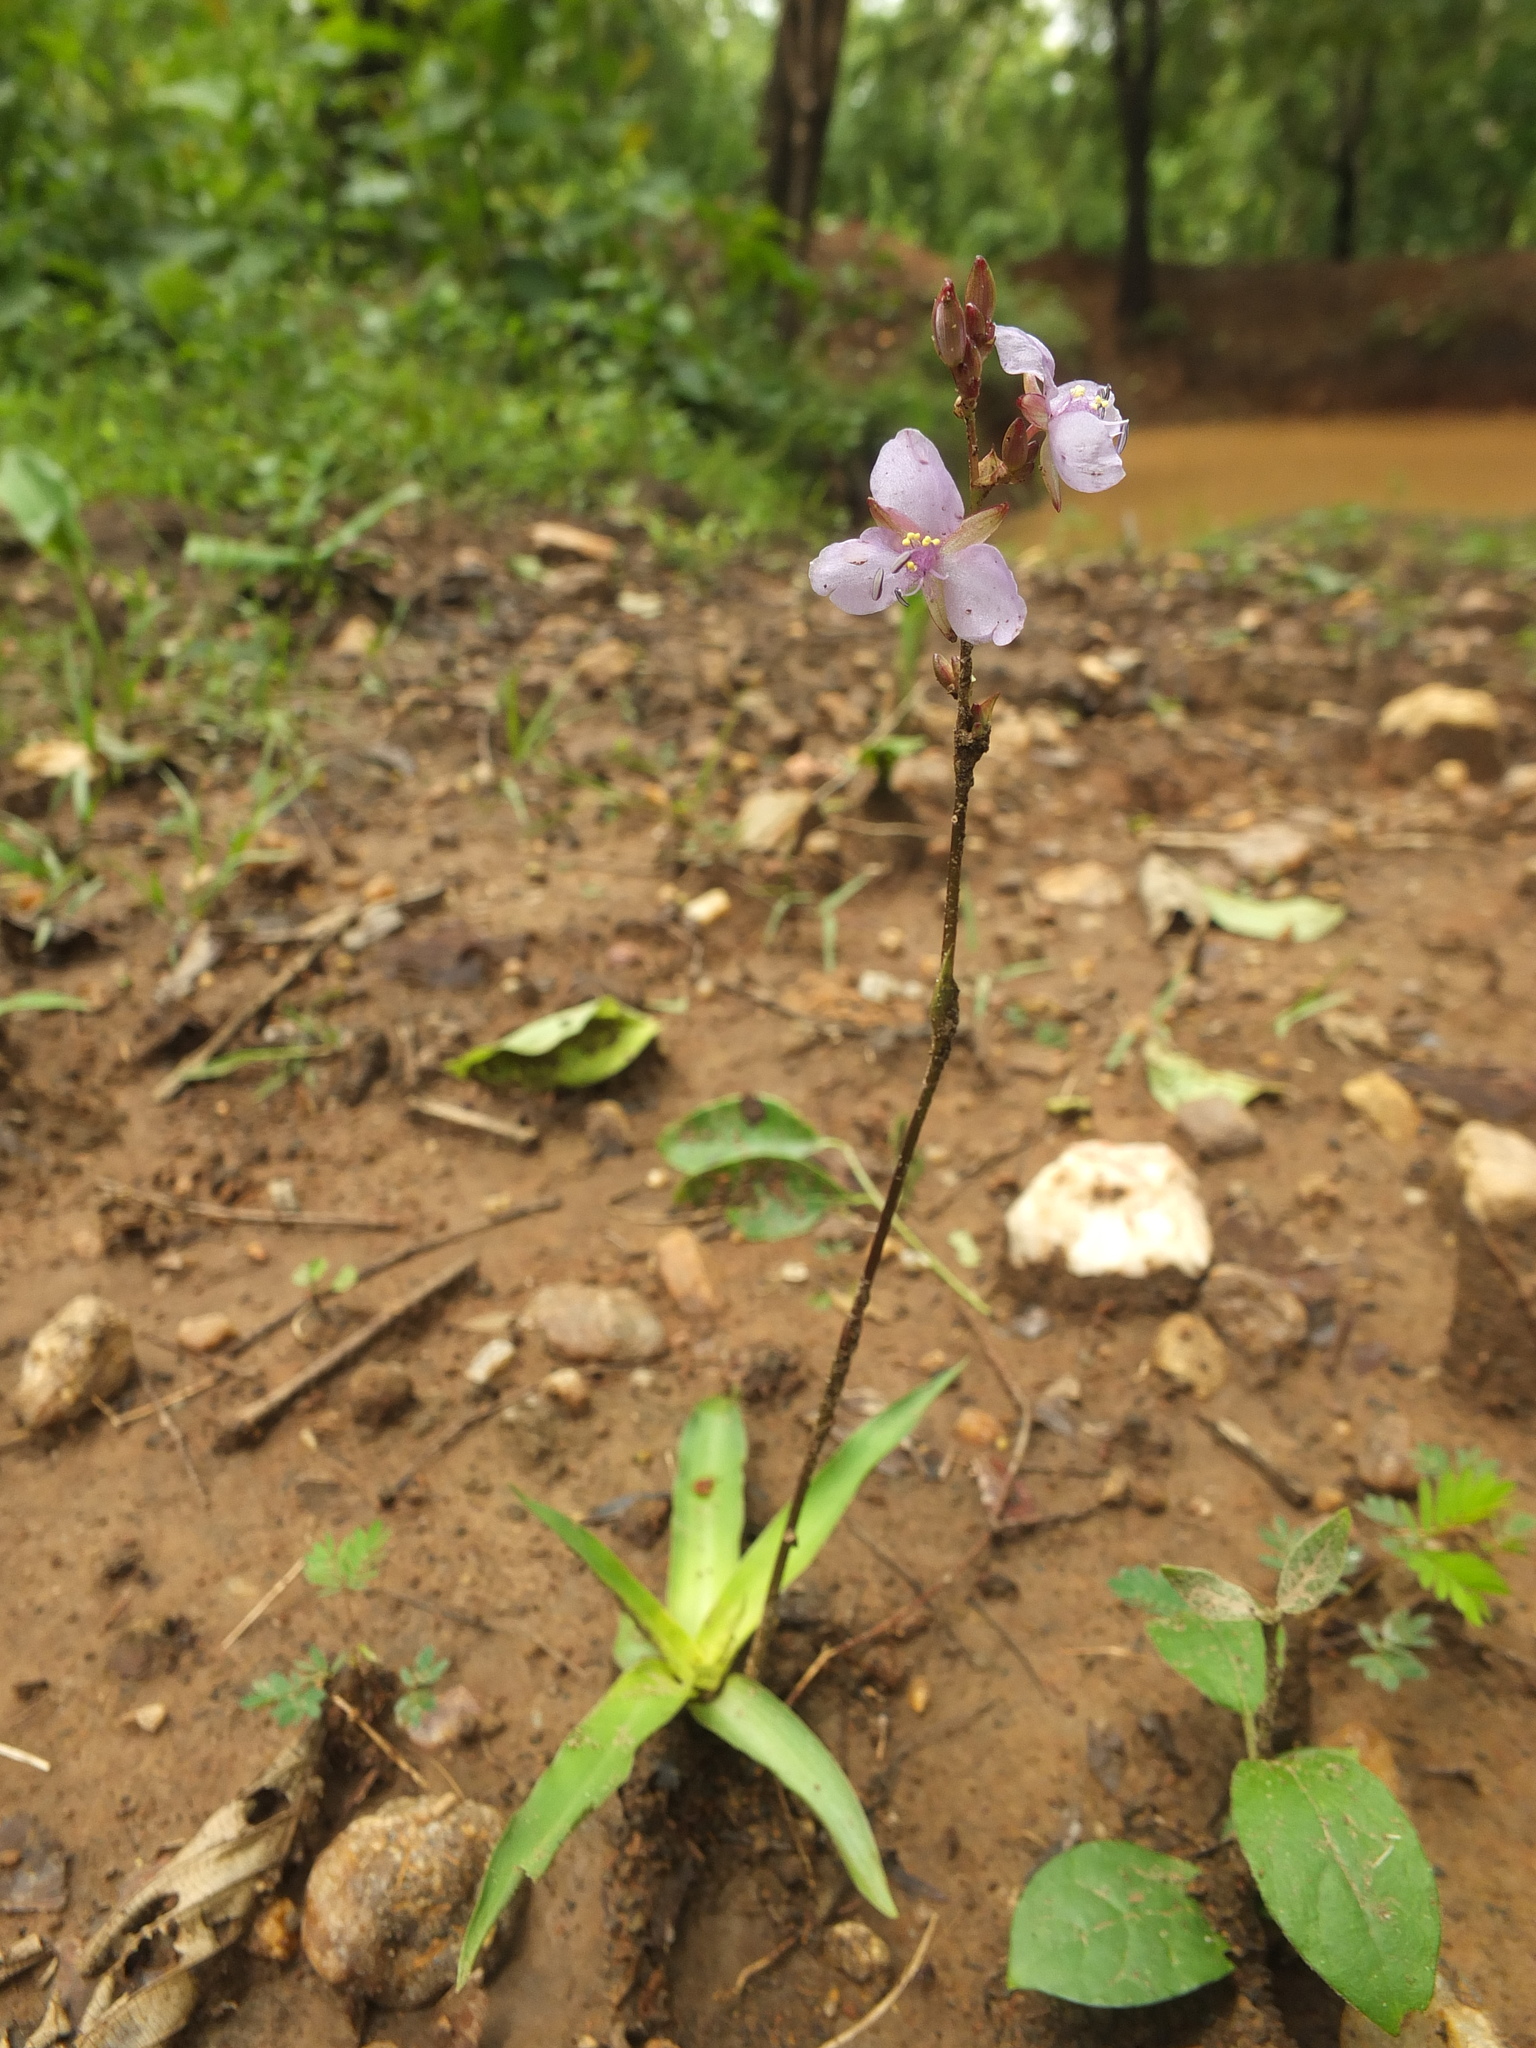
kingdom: Plantae
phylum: Tracheophyta
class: Liliopsida
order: Commelinales
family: Commelinaceae
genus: Murdannia
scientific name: Murdannia edulis
